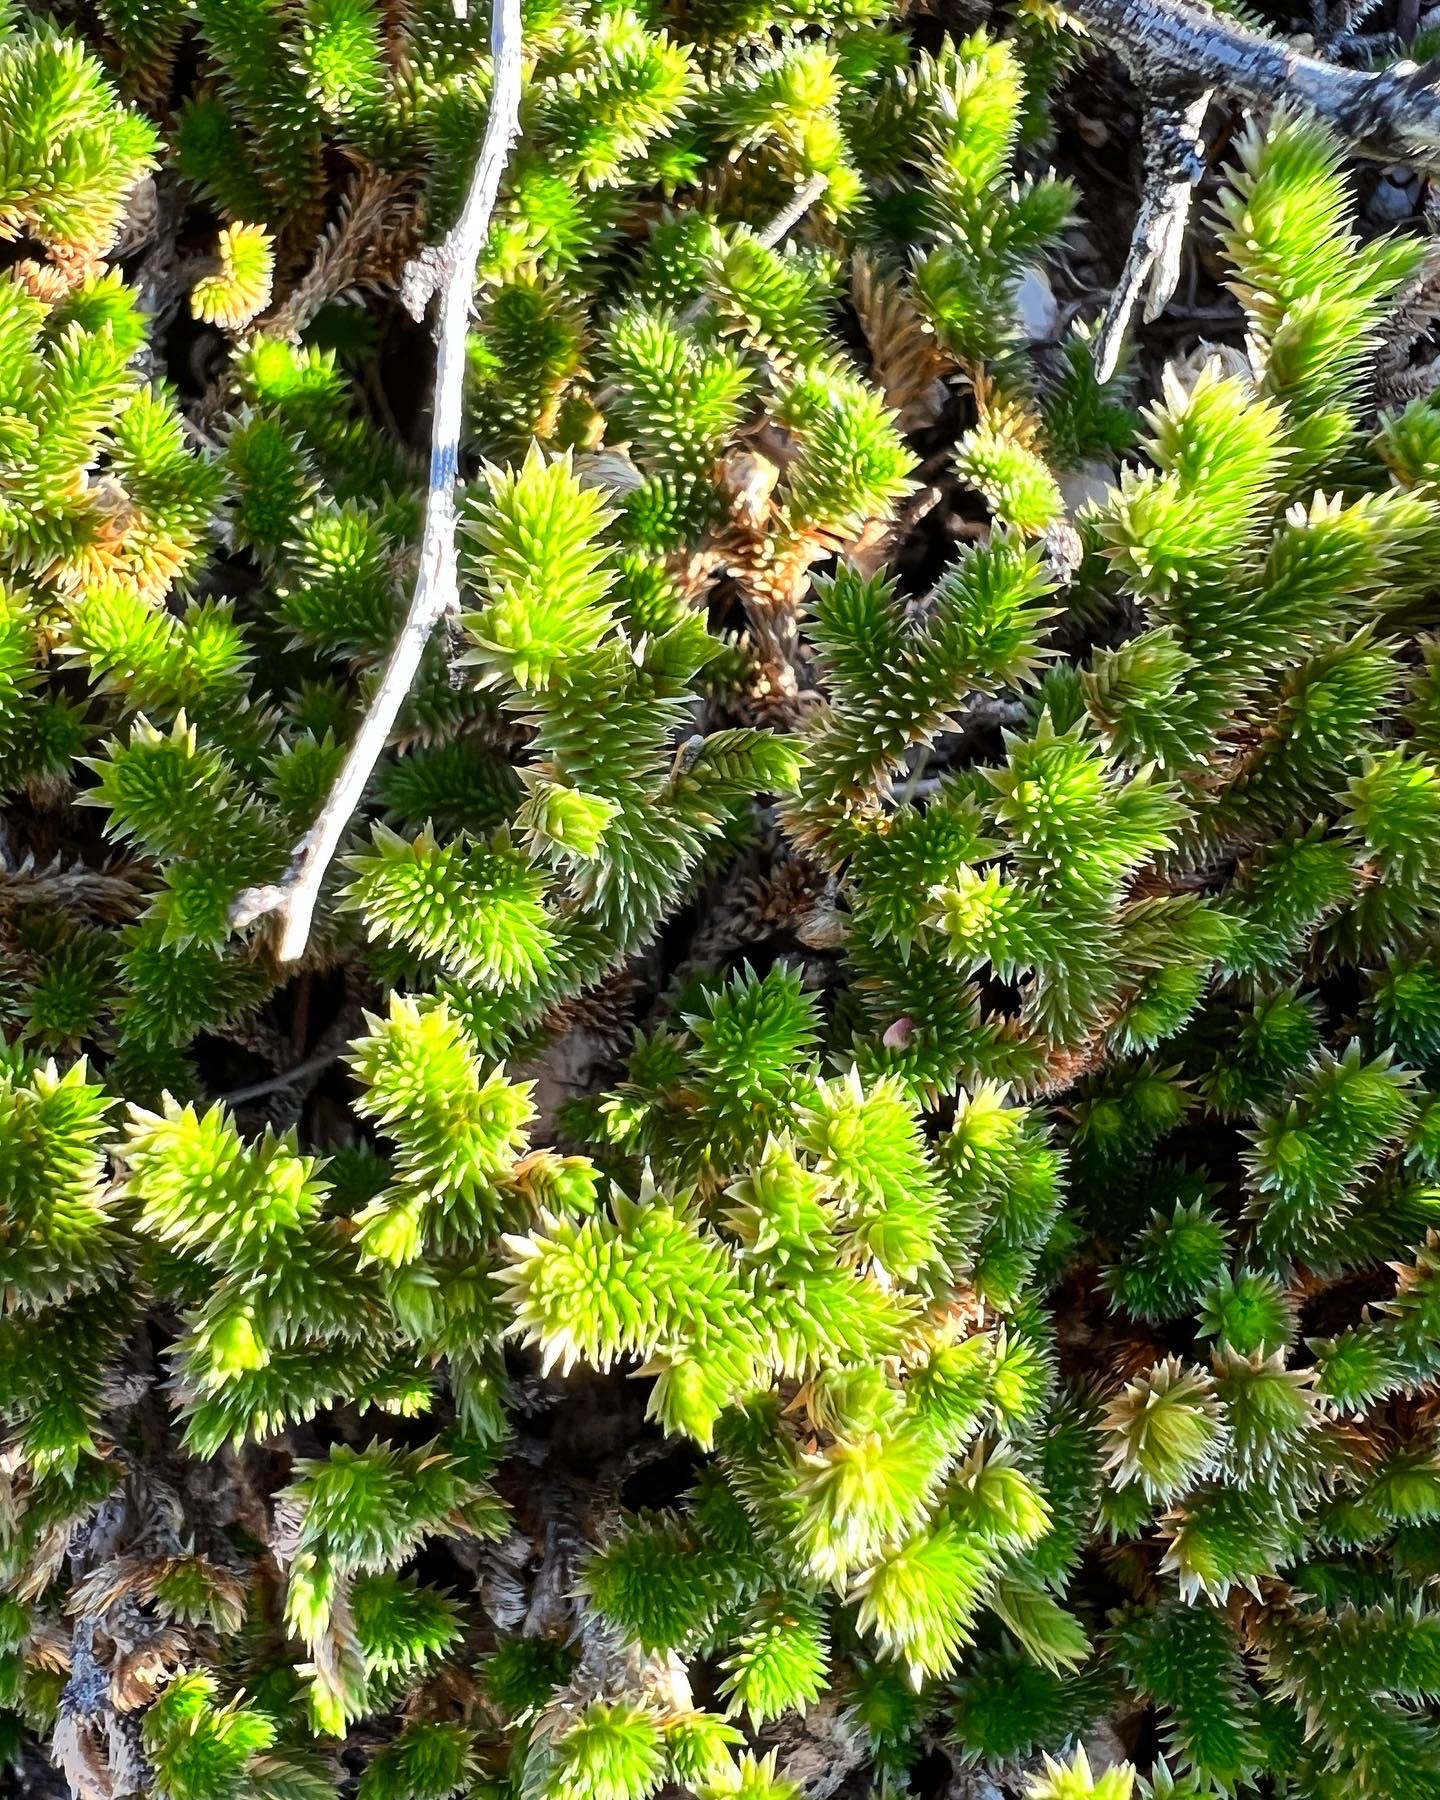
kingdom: Plantae
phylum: Tracheophyta
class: Lycopodiopsida
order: Selaginellales
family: Selaginellaceae
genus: Selaginella
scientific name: Selaginella arizonica
